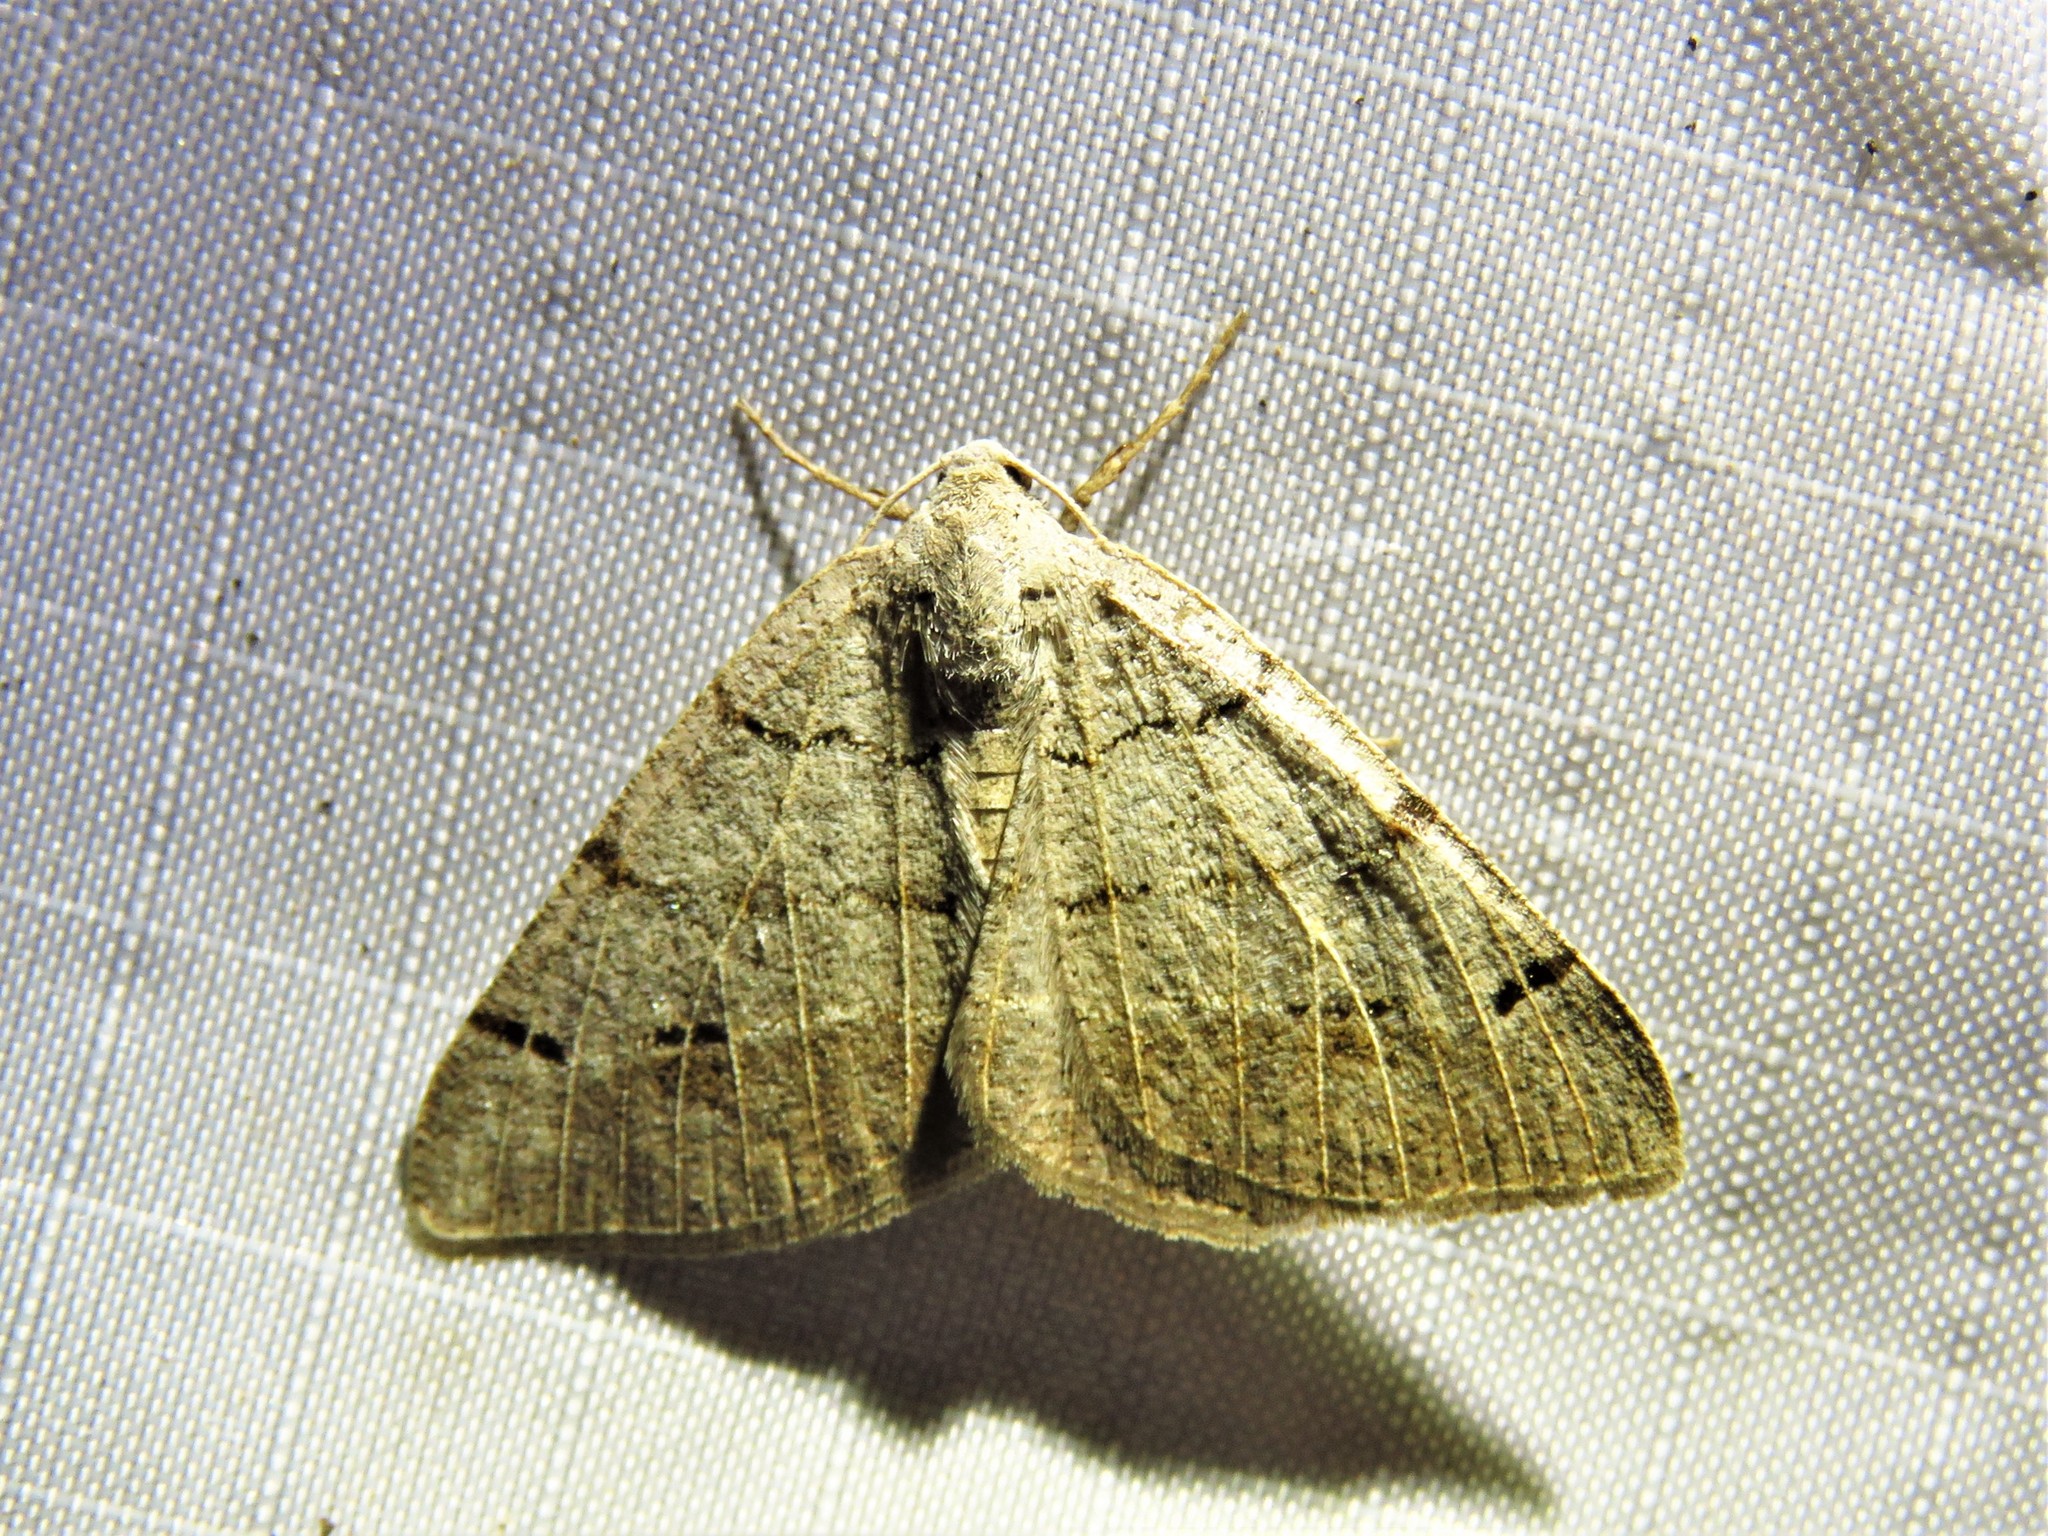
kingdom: Animalia
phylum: Arthropoda
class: Insecta
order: Lepidoptera
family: Geometridae
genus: Isturgia
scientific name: Isturgia dislocaria
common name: Pale-viened enconista
